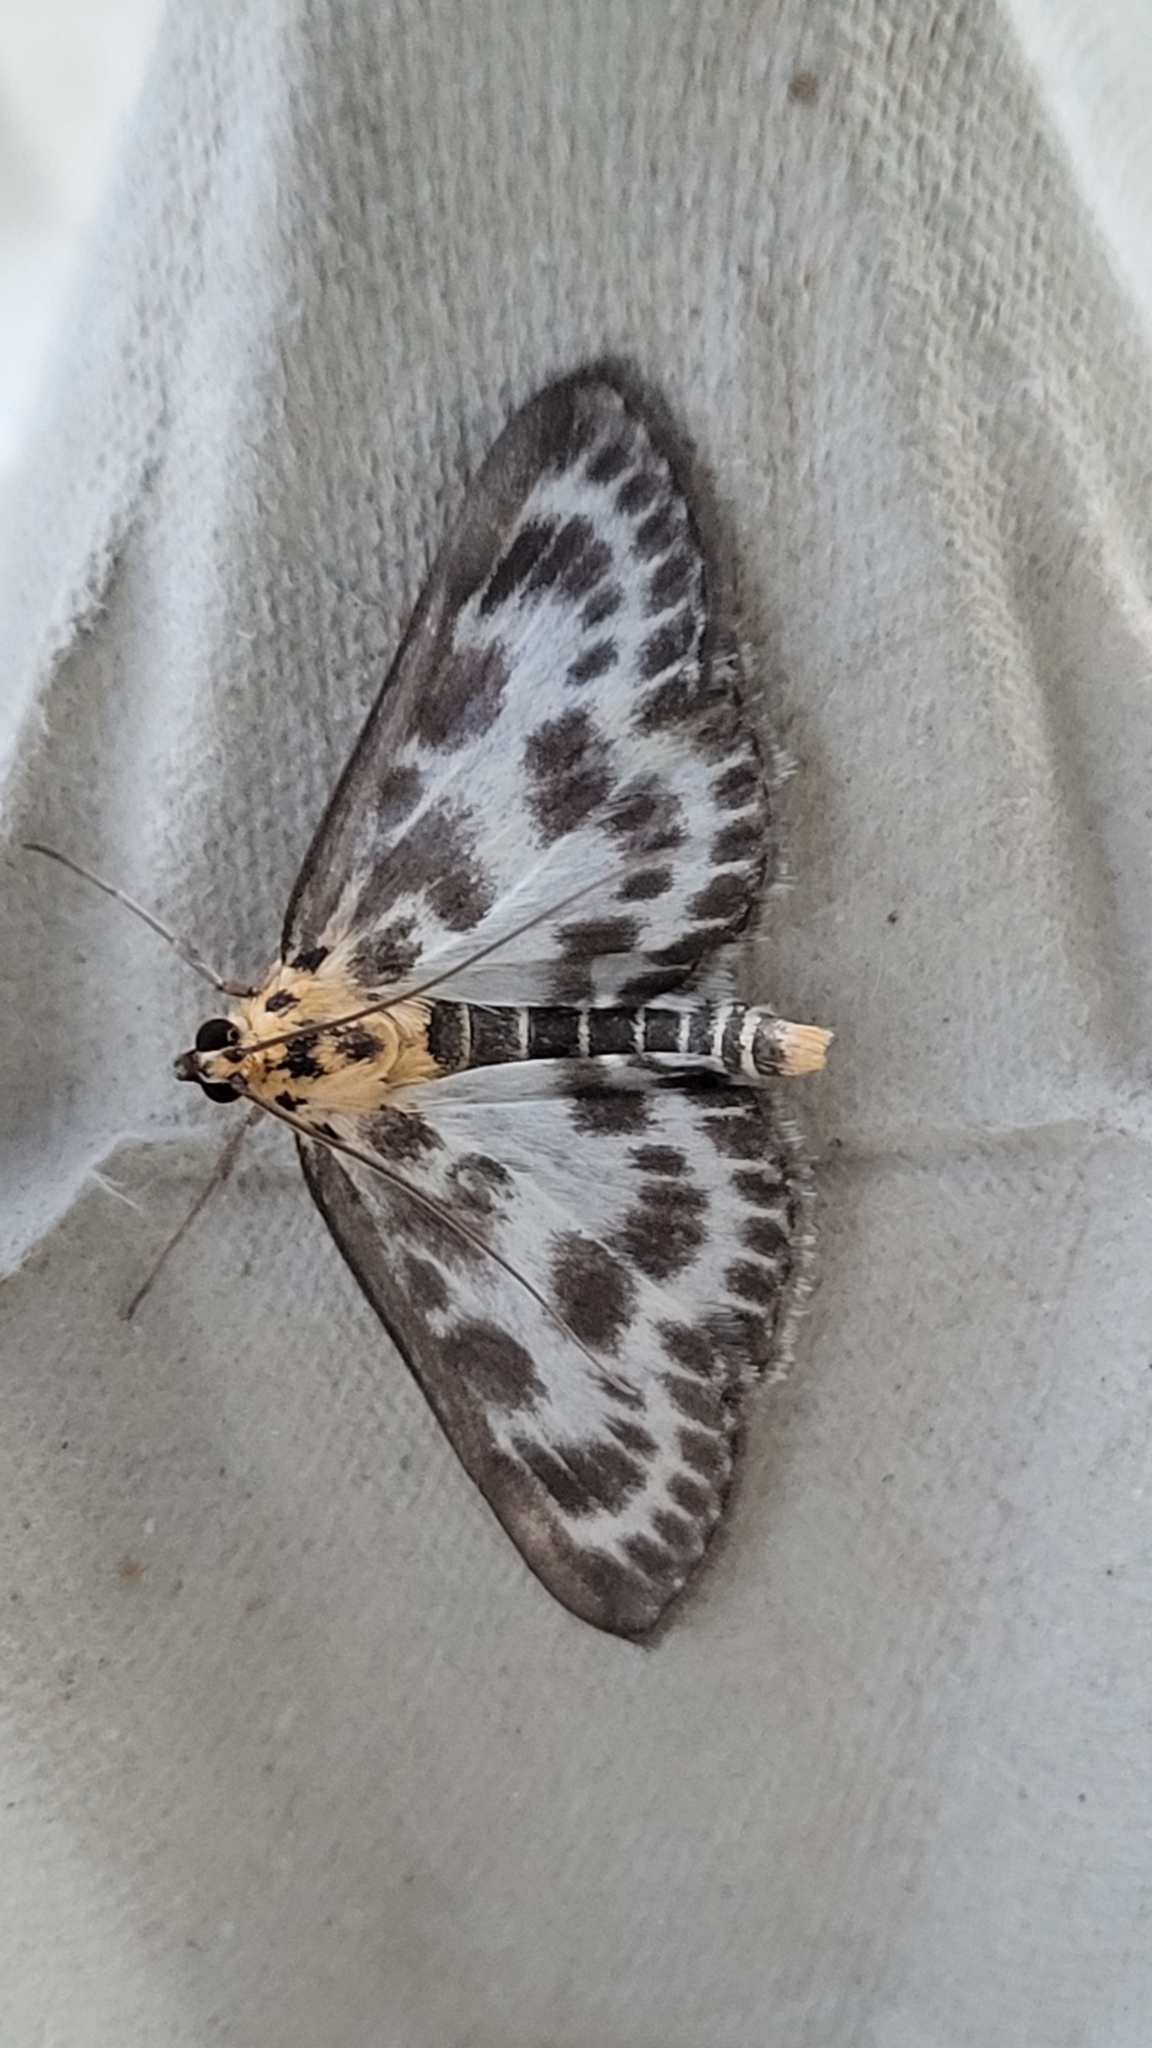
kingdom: Animalia
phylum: Arthropoda
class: Insecta
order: Lepidoptera
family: Crambidae
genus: Anania
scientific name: Anania hortulata
